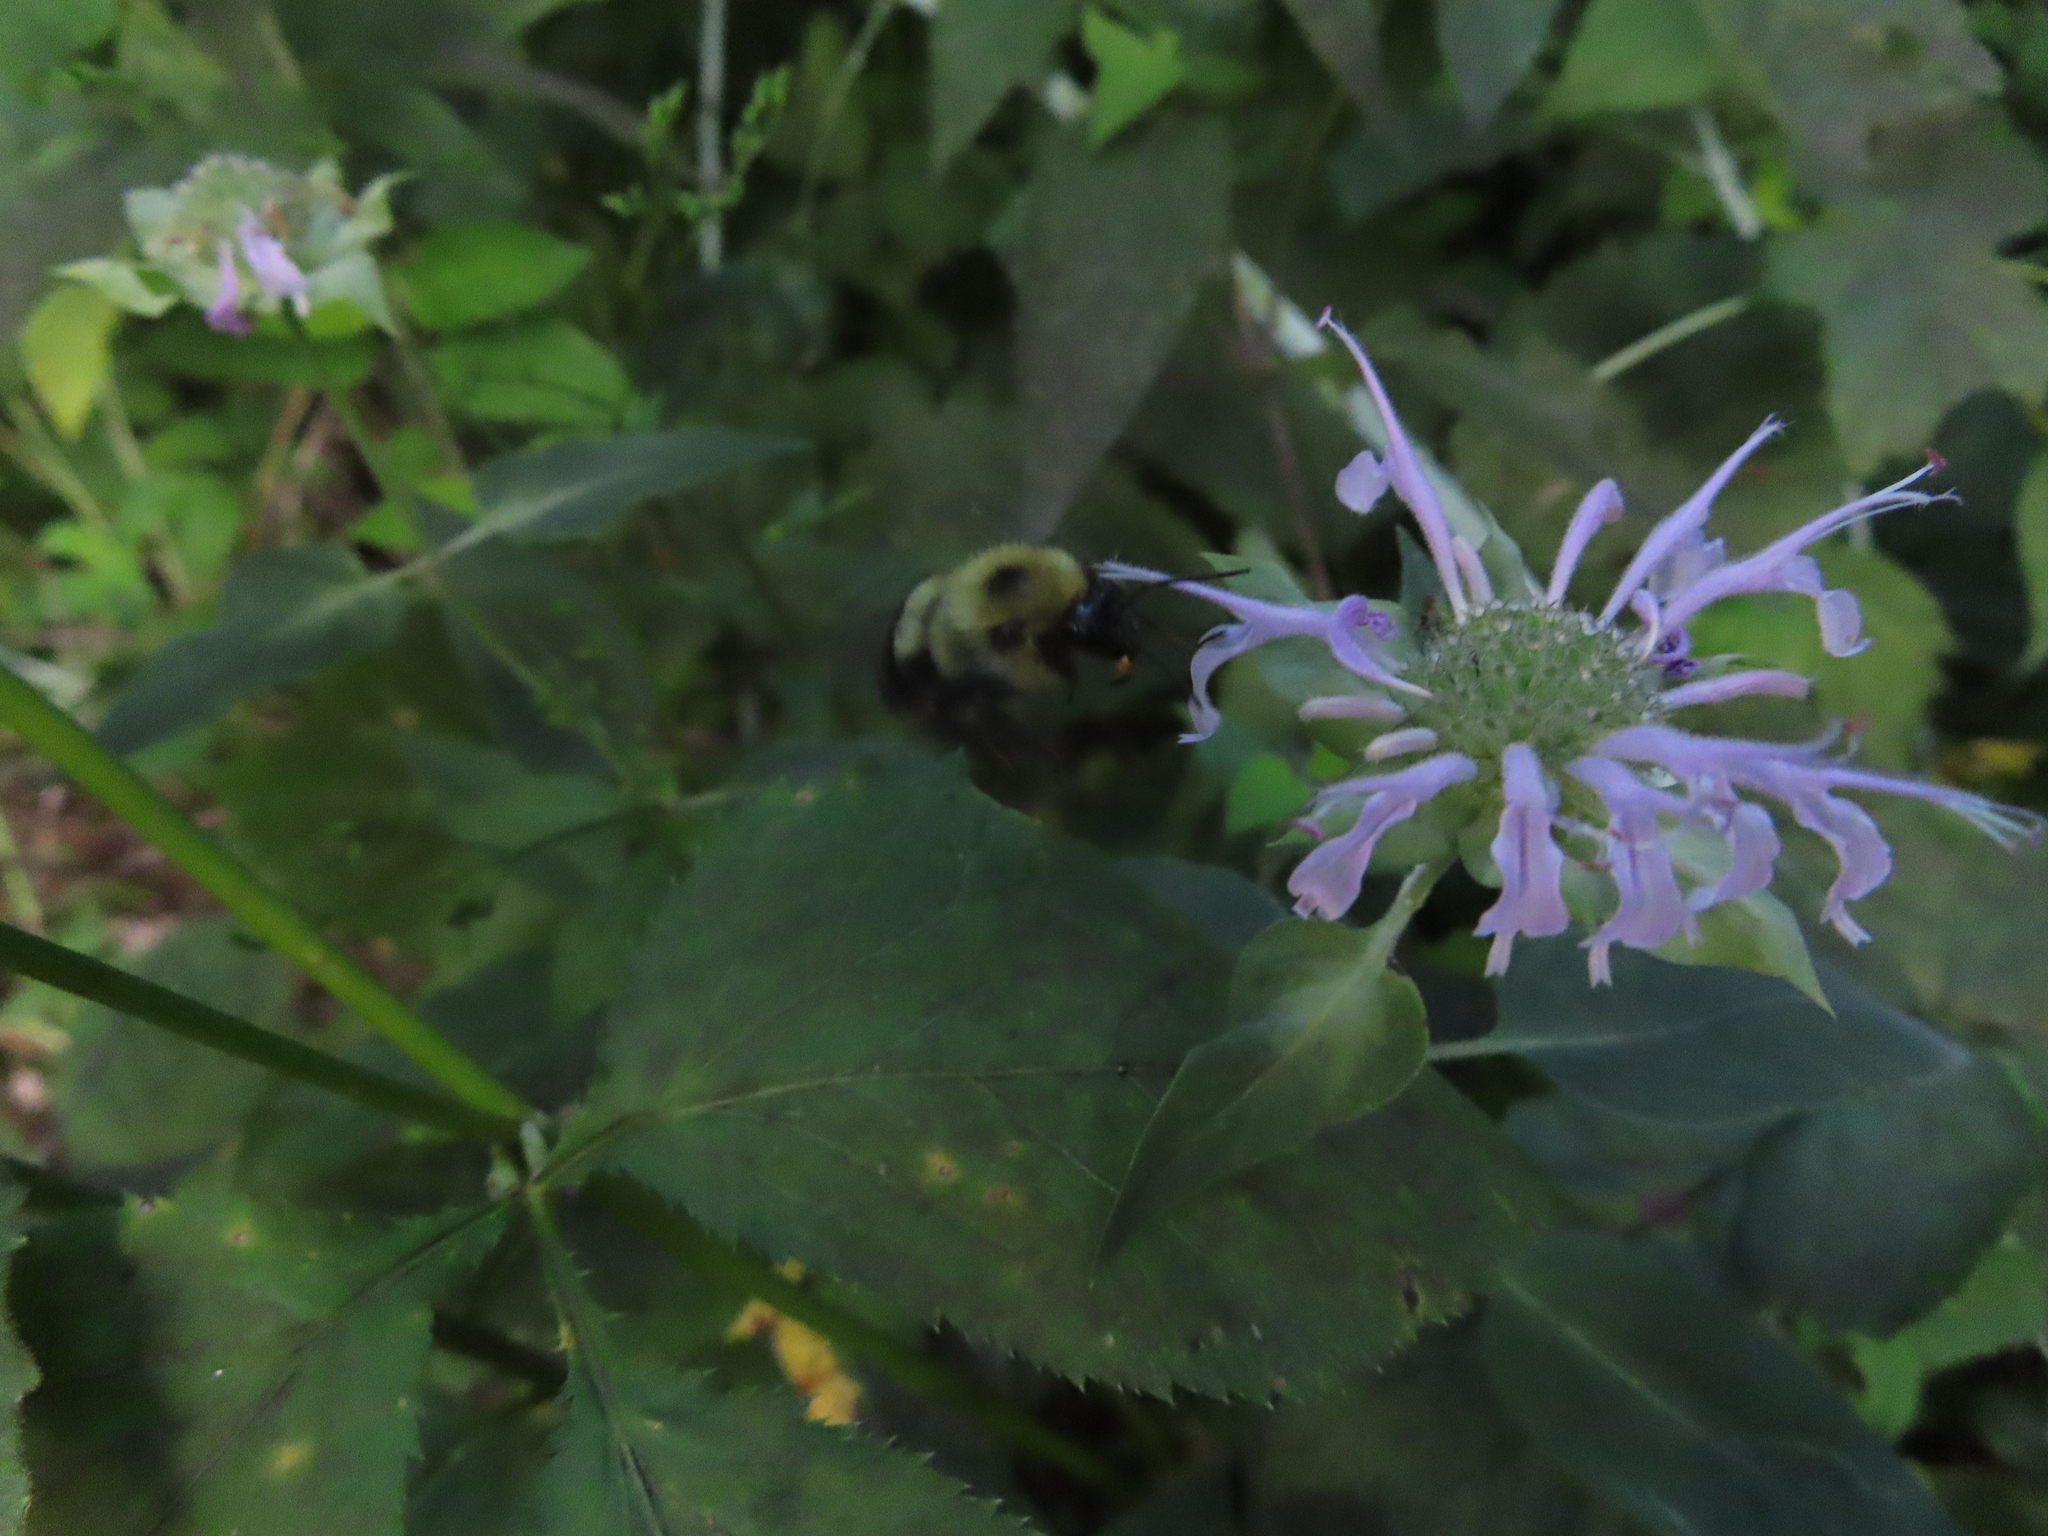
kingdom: Animalia
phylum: Arthropoda
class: Insecta
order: Hymenoptera
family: Apidae
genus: Bombus
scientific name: Bombus bimaculatus
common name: Two-spotted bumble bee
